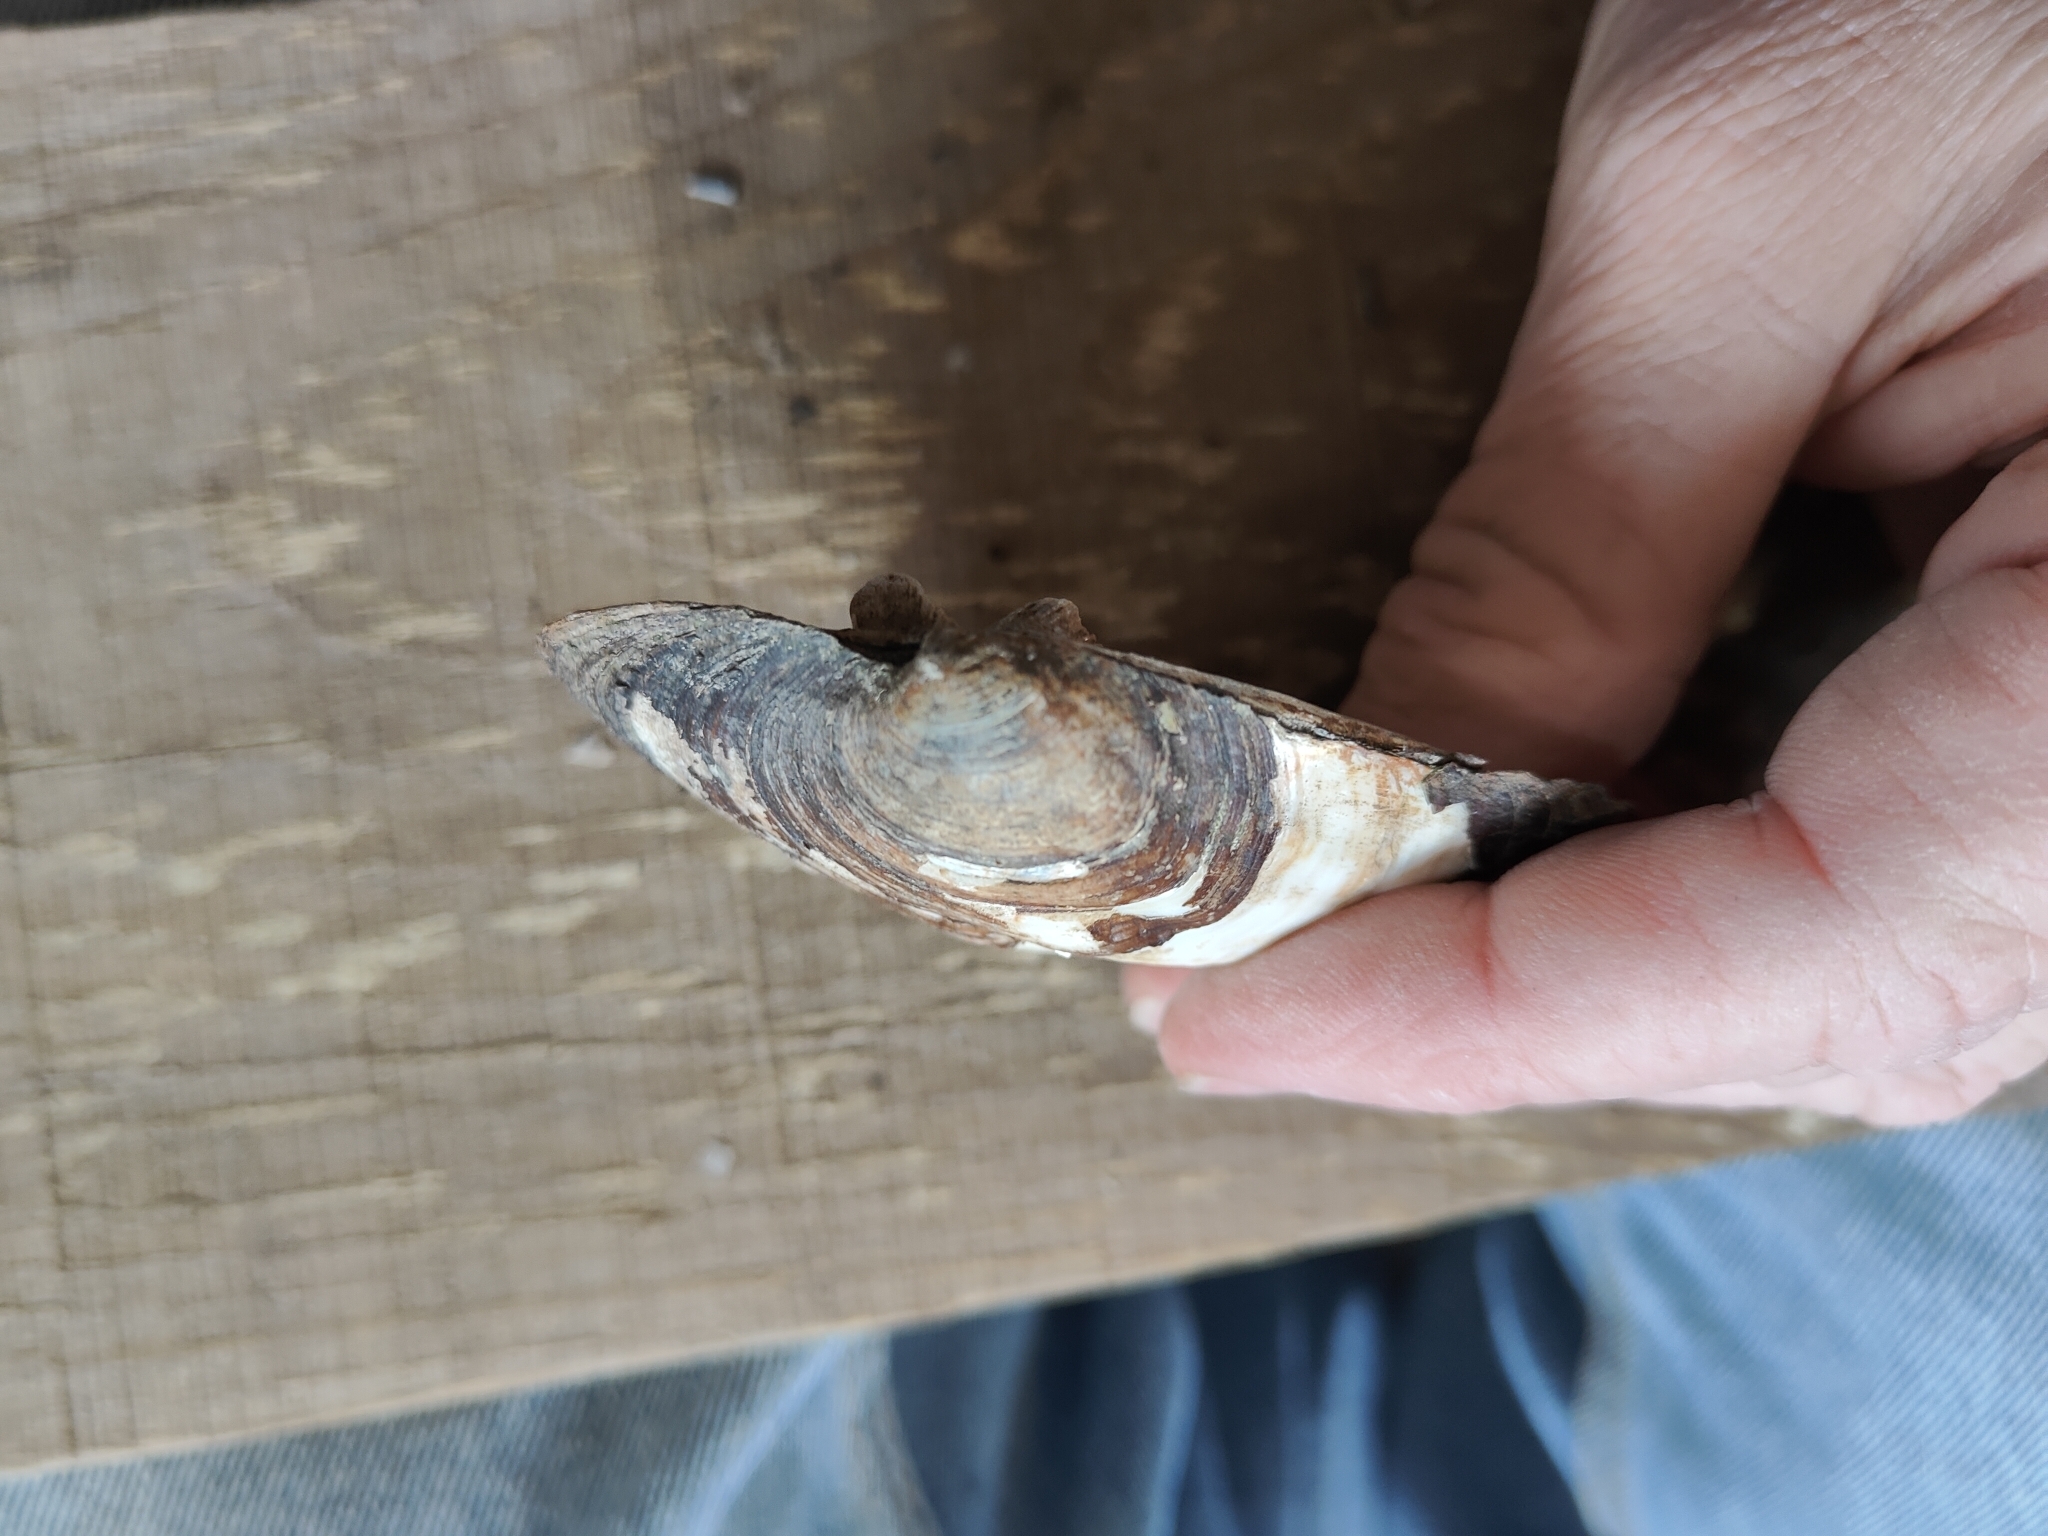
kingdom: Animalia
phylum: Mollusca
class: Bivalvia
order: Unionida
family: Unionidae
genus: Amblema
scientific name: Amblema plicata
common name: Threeridge
